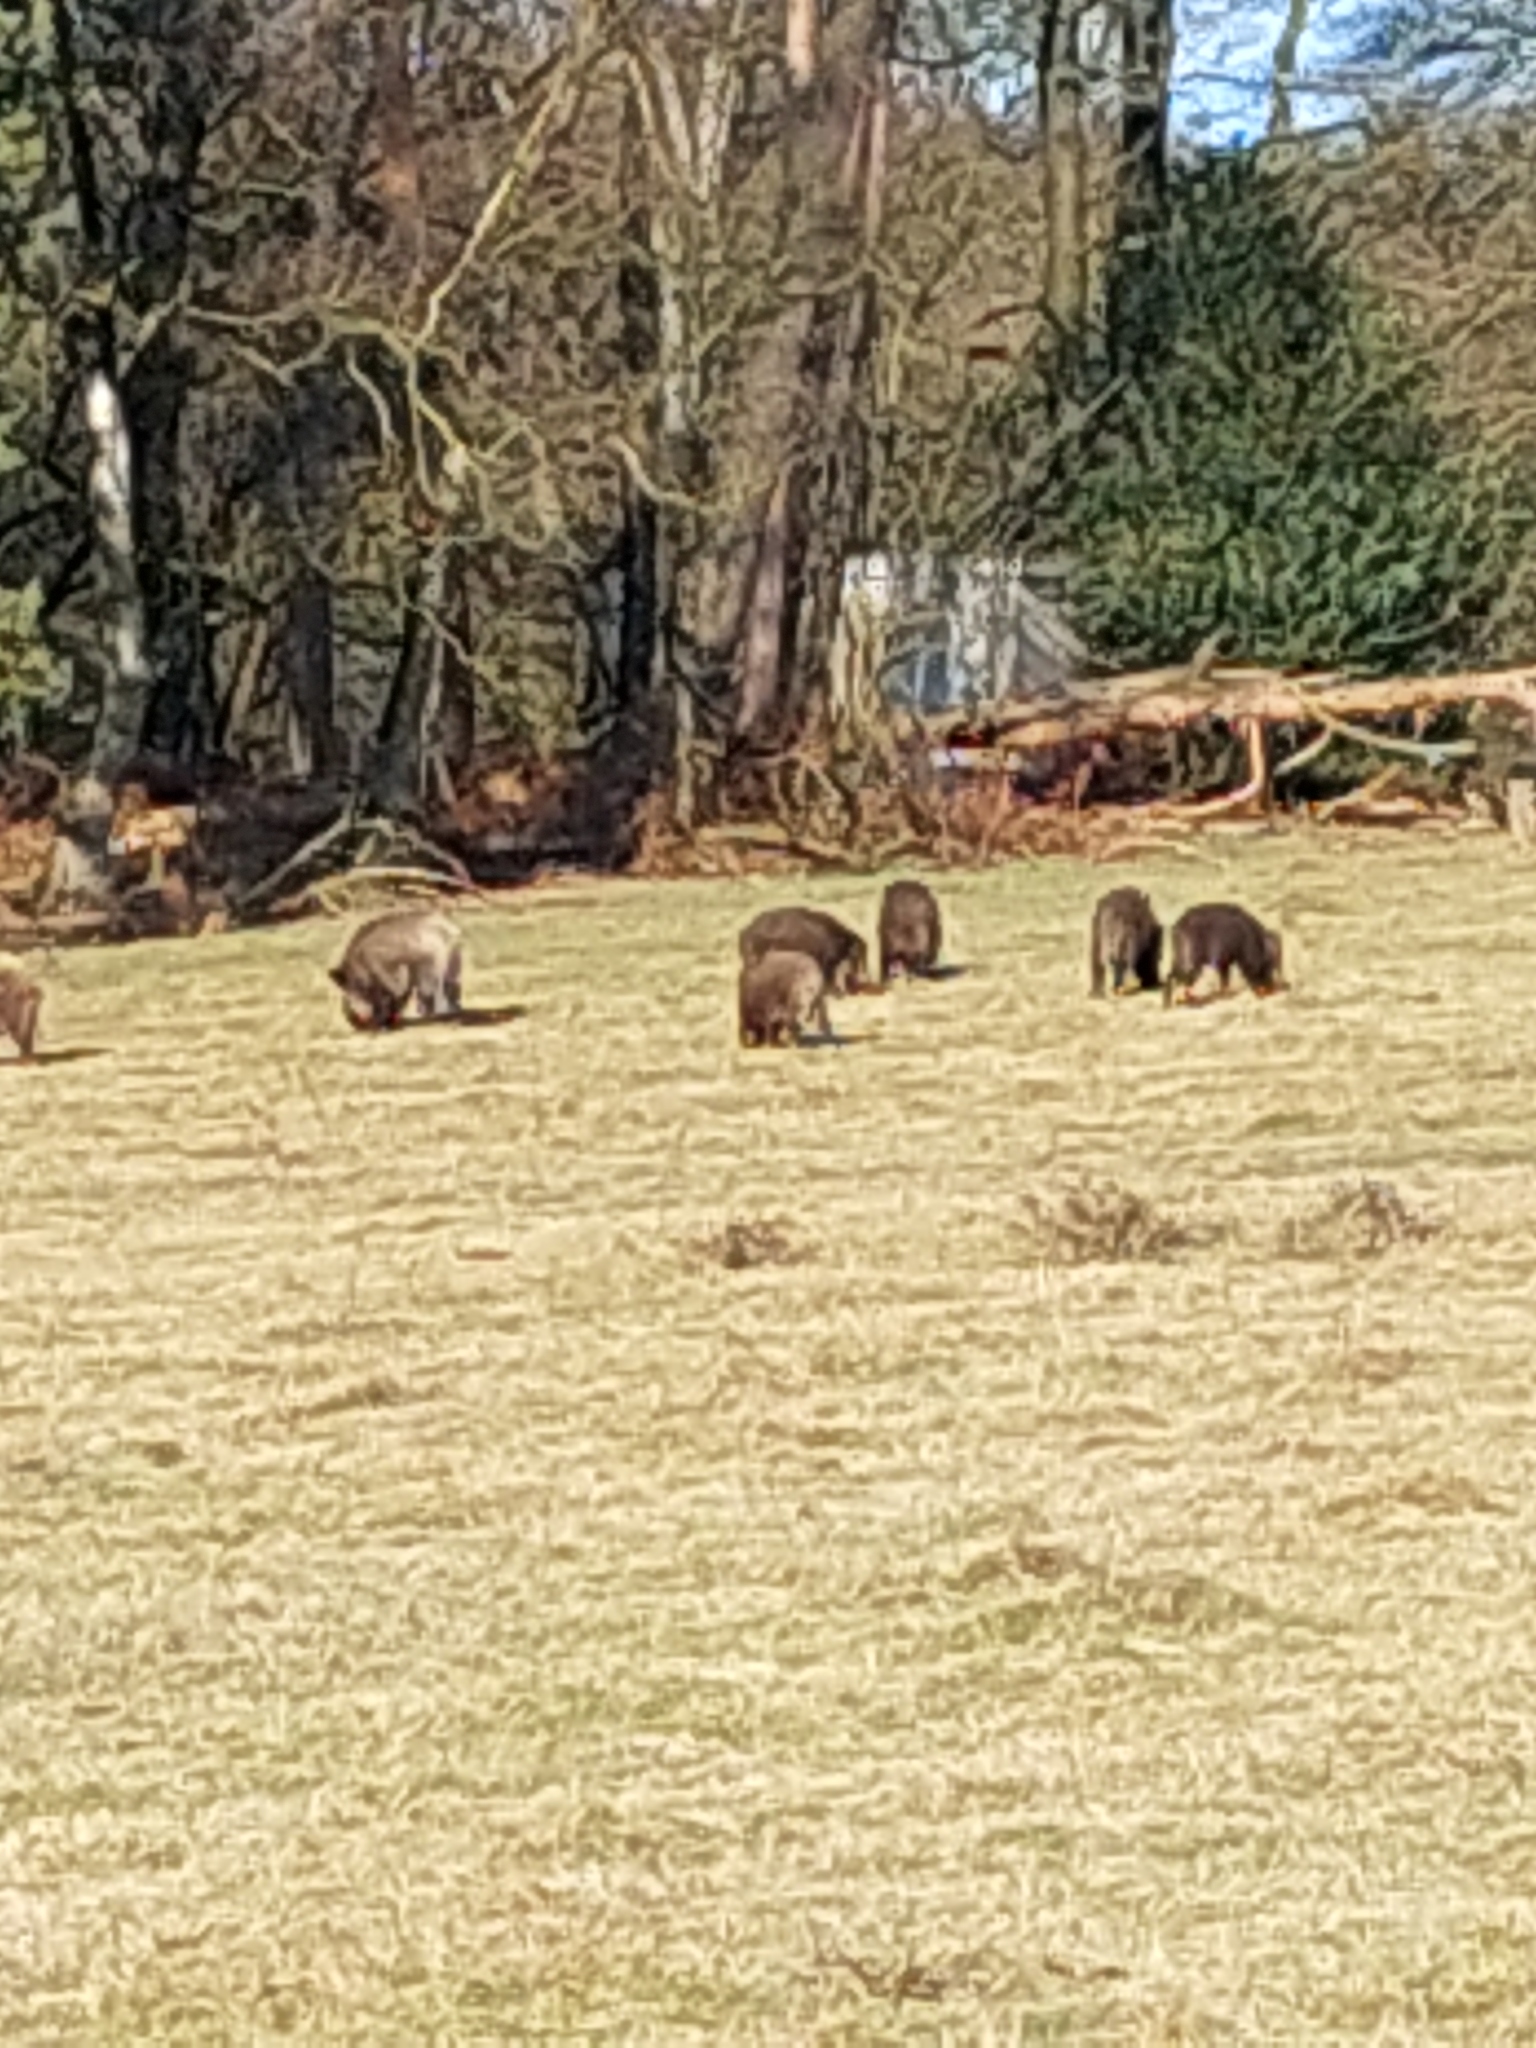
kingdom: Animalia
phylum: Chordata
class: Mammalia
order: Artiodactyla
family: Suidae
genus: Sus
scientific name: Sus scrofa
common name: Wild boar
